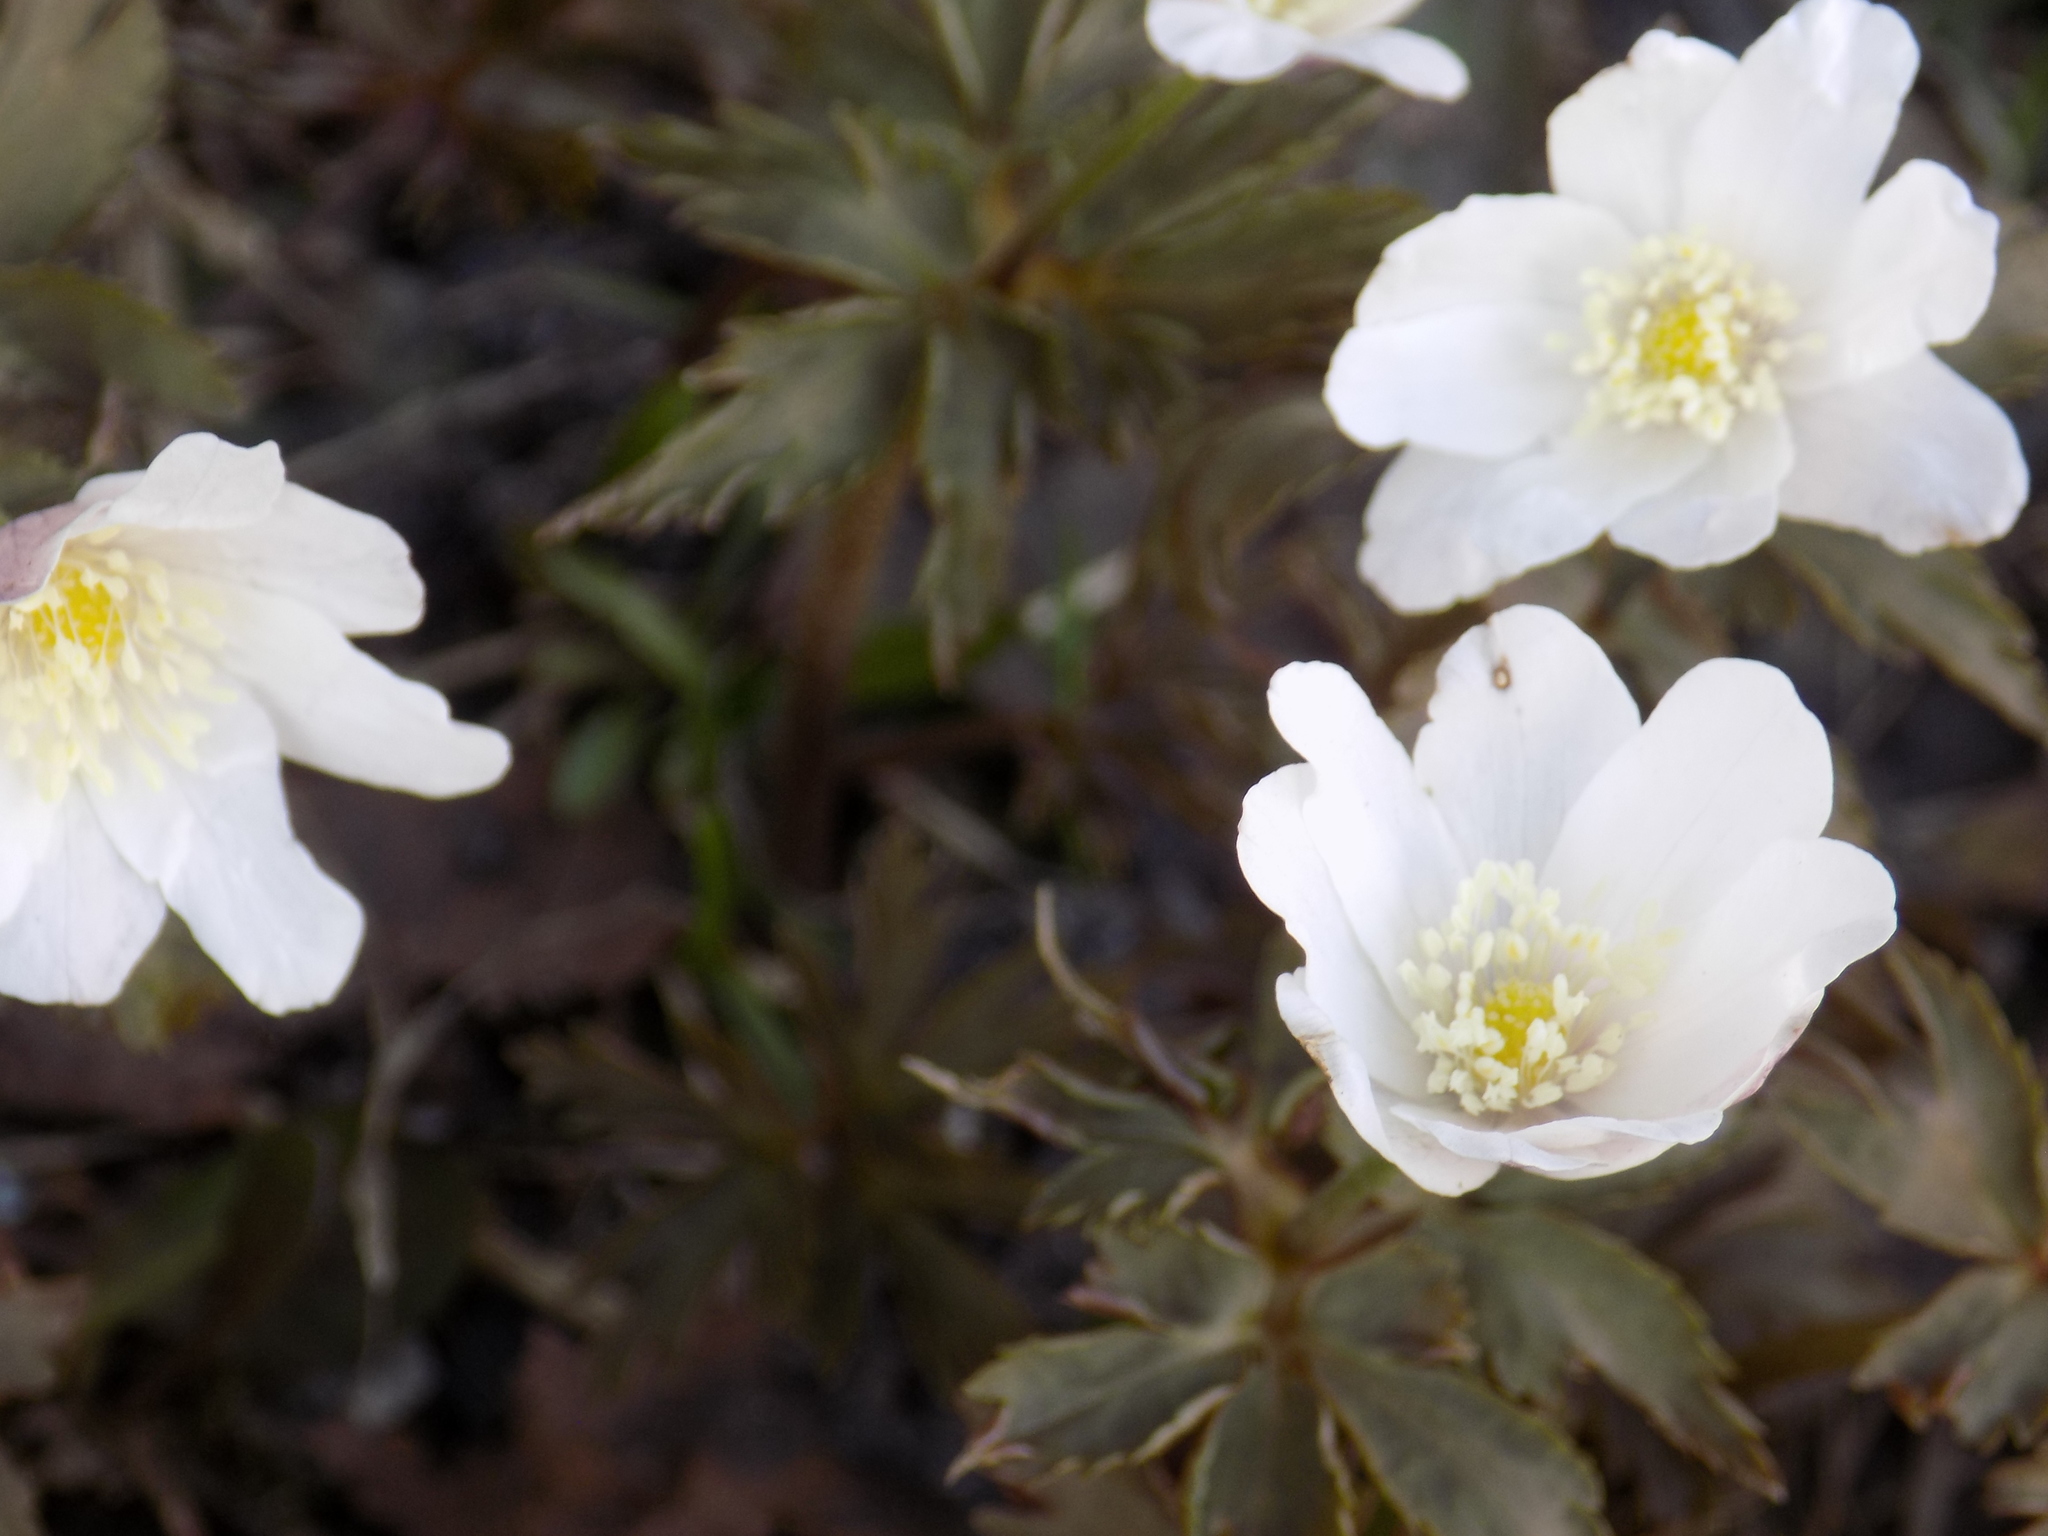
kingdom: Plantae
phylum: Tracheophyta
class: Magnoliopsida
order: Ranunculales
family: Ranunculaceae
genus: Anemone
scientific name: Anemone altaica
